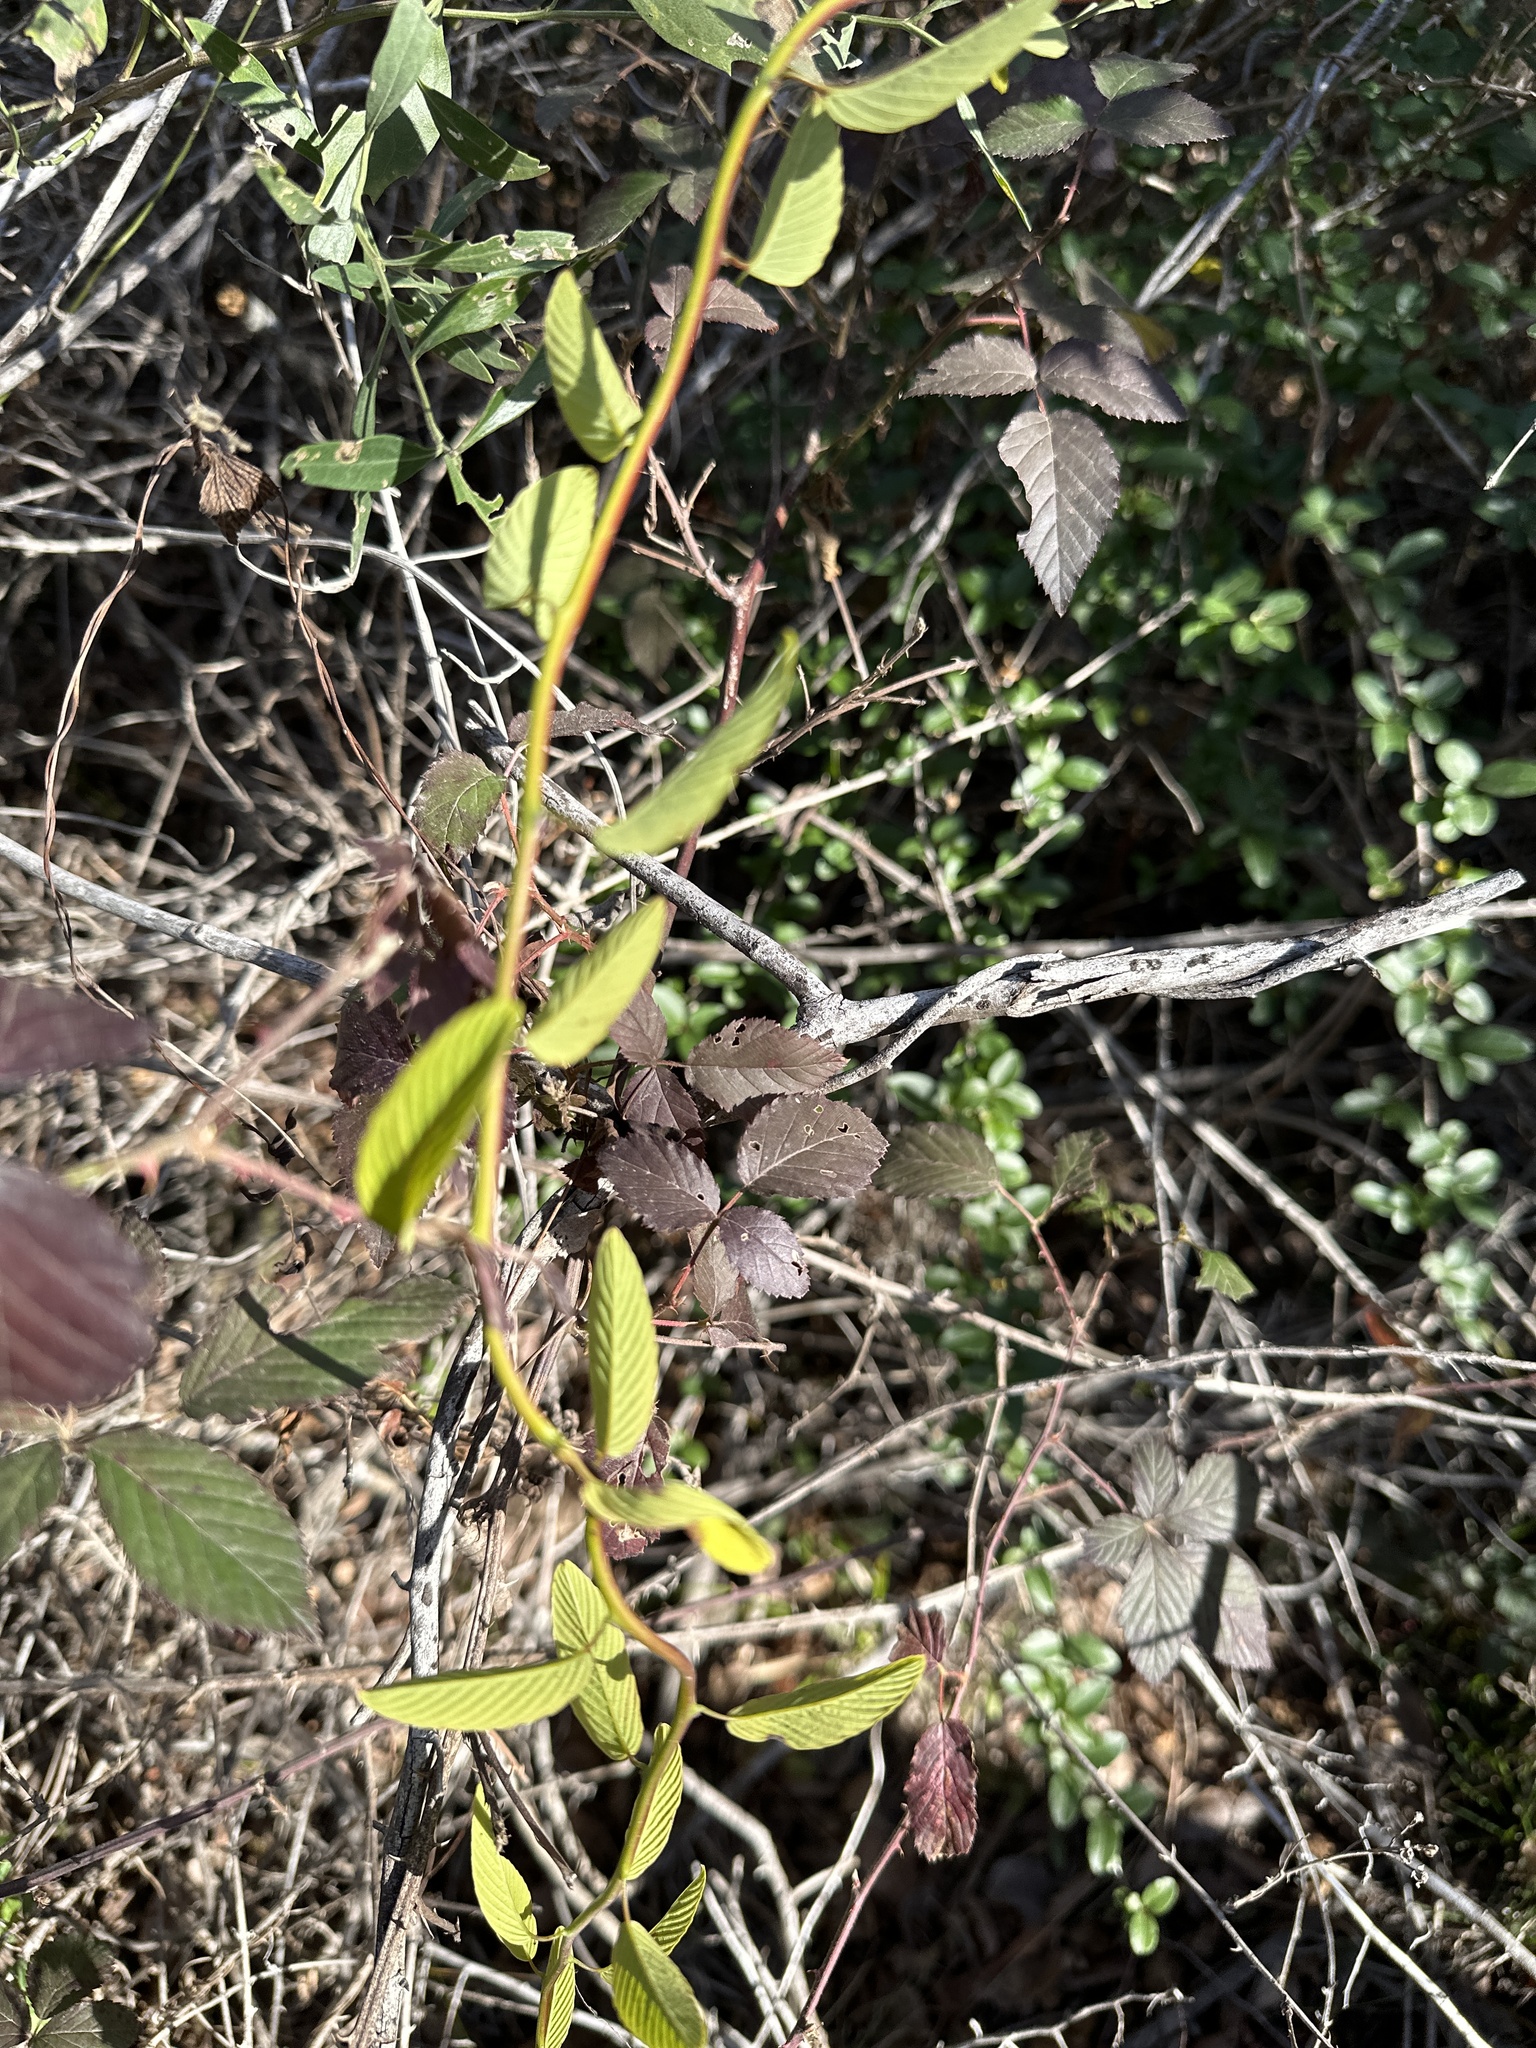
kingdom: Plantae
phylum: Tracheophyta
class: Magnoliopsida
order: Rosales
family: Rhamnaceae
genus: Berchemia
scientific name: Berchemia scandens
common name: Supplejack
